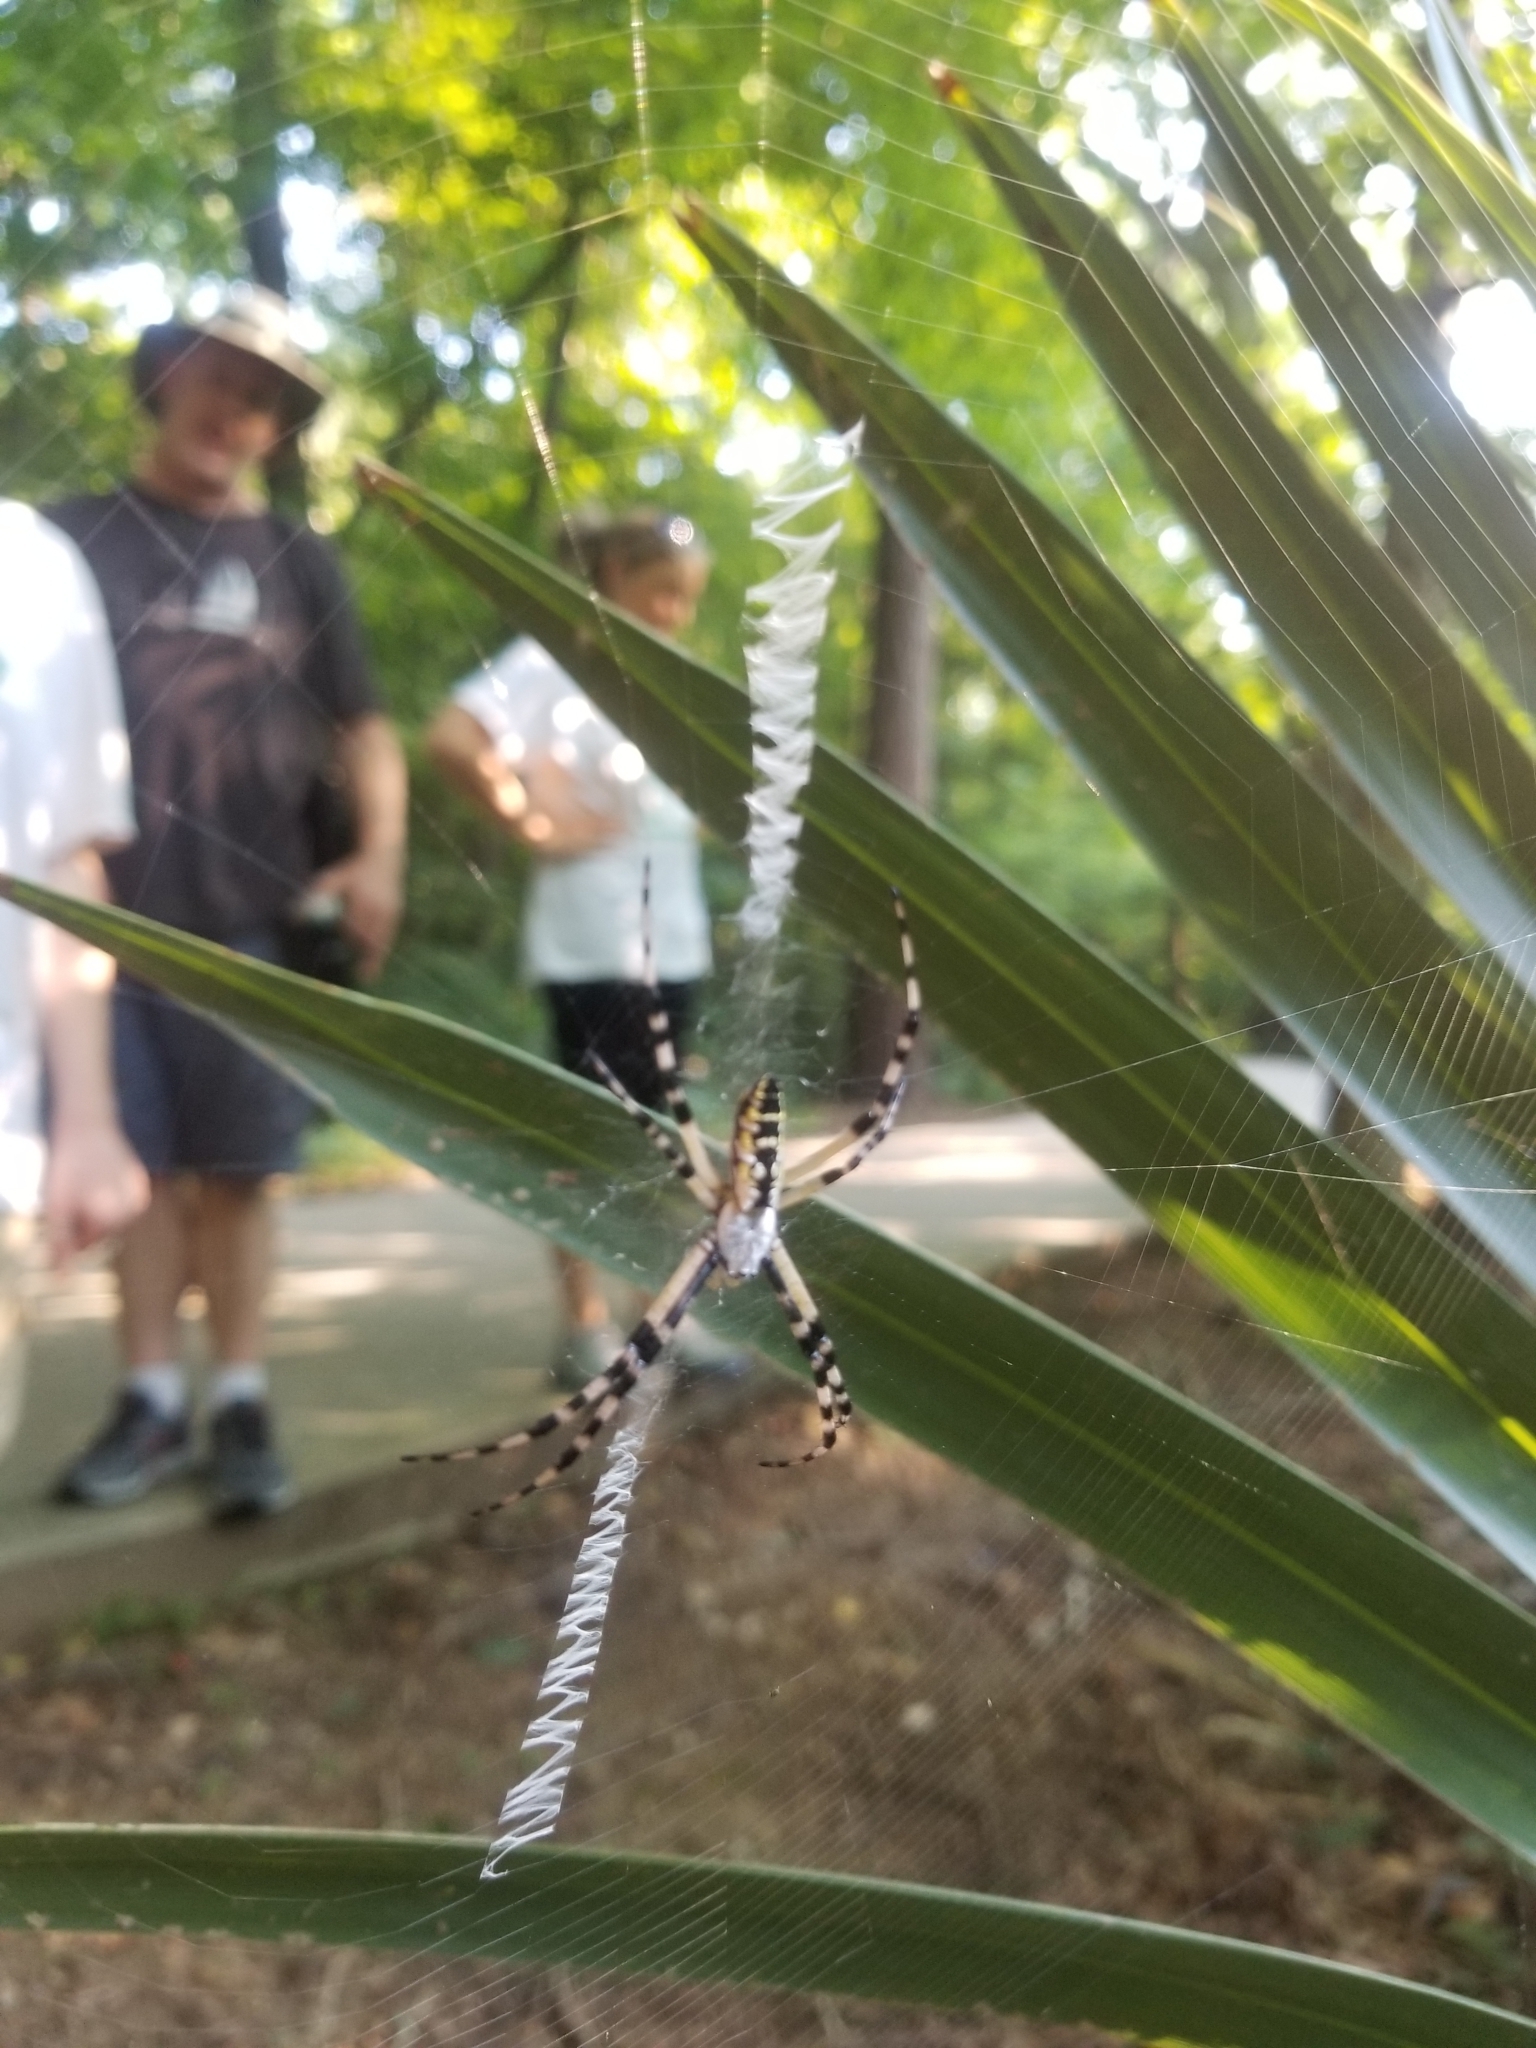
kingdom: Animalia
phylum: Arthropoda
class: Arachnida
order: Araneae
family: Araneidae
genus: Argiope
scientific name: Argiope aurantia
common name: Orb weavers
